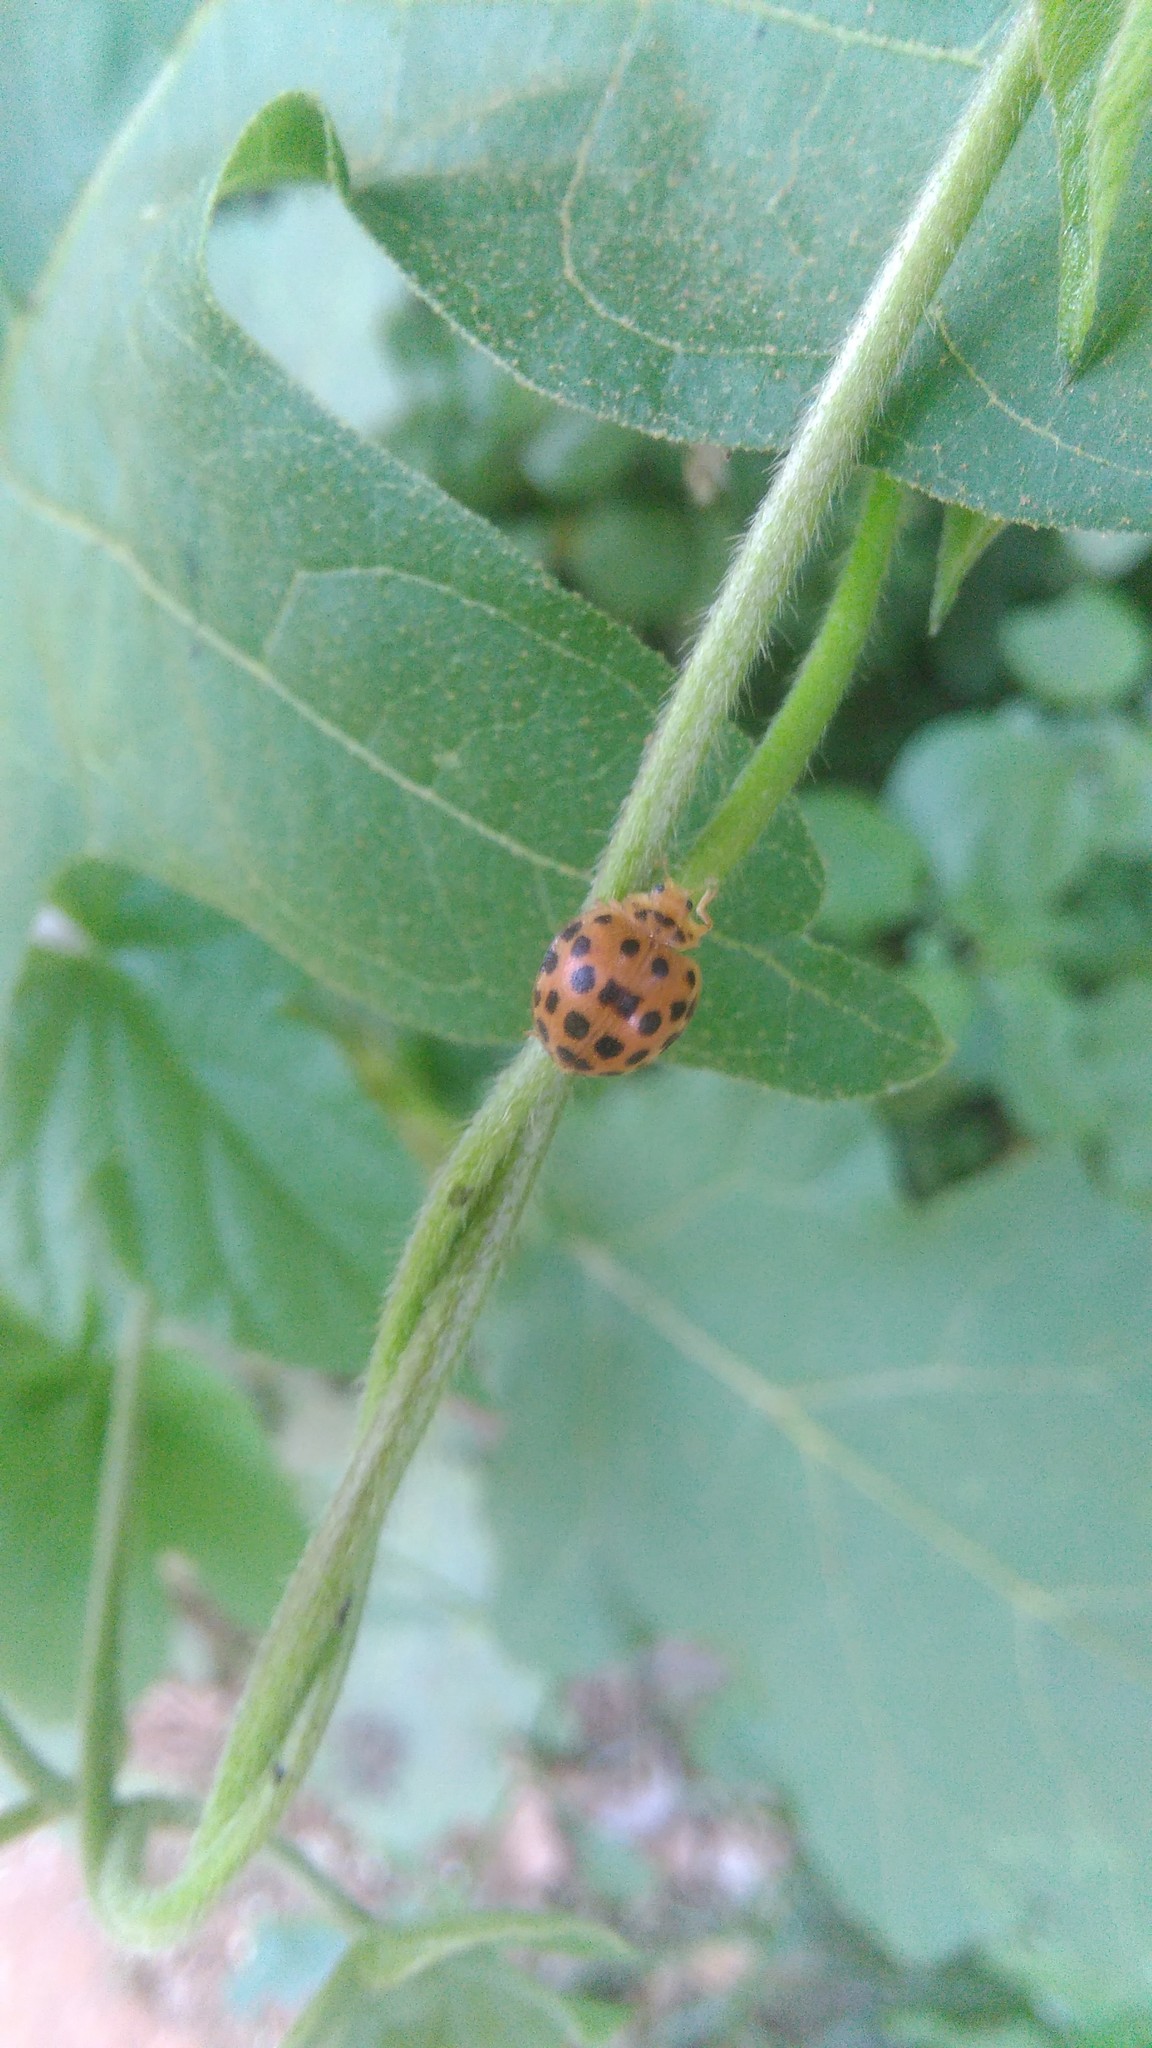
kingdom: Animalia
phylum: Arthropoda
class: Insecta
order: Coleoptera
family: Coccinellidae
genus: Henosepilachna
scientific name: Henosepilachna vigintioctopunctata
